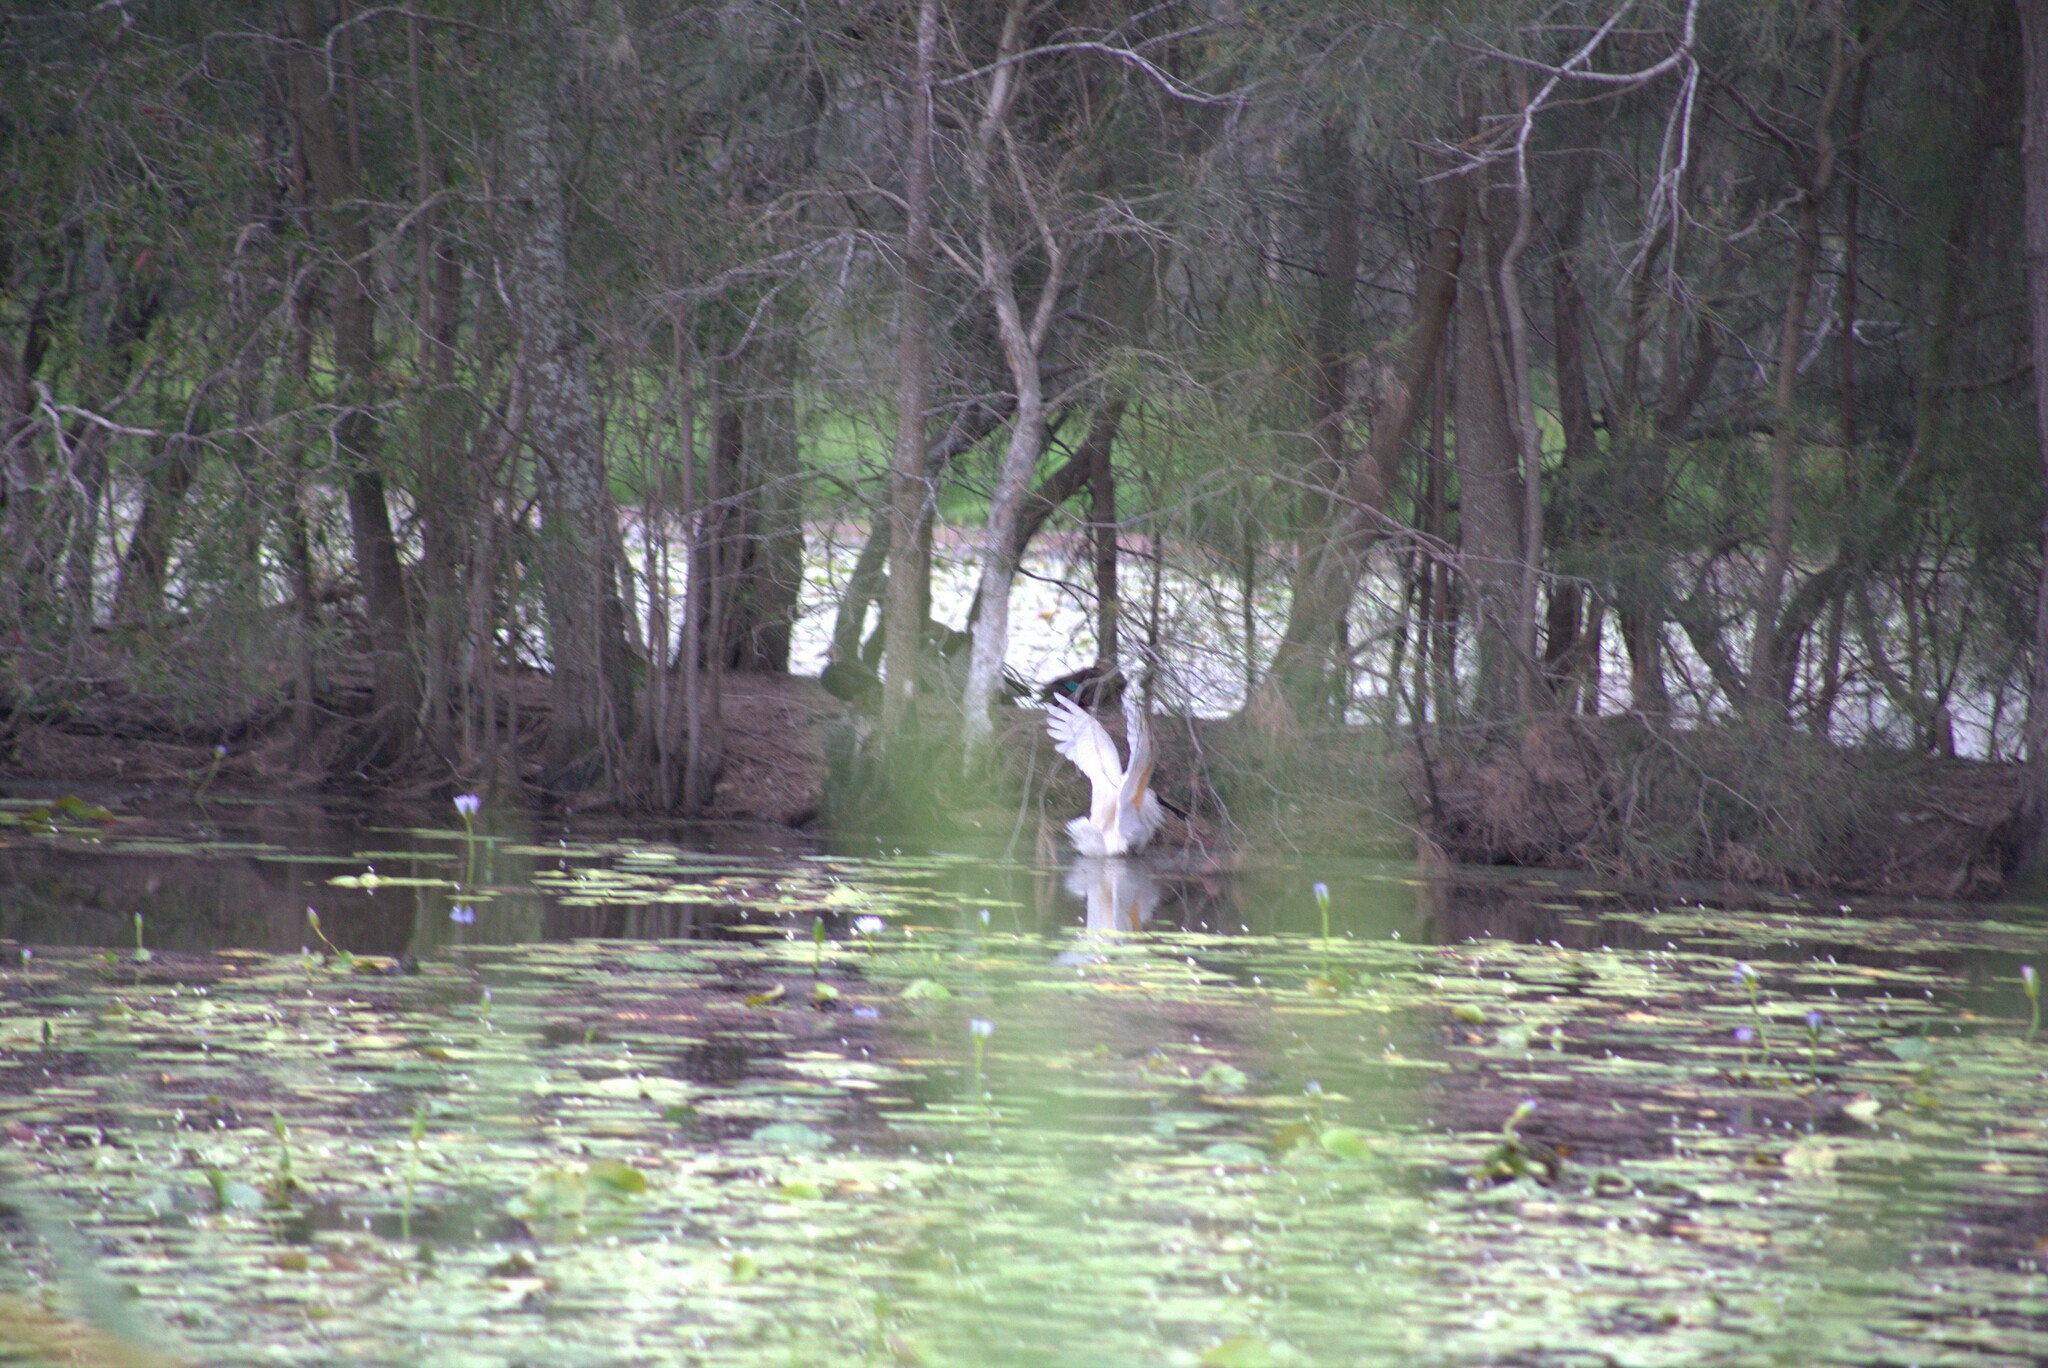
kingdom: Animalia
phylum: Chordata
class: Aves
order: Pelecaniformes
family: Threskiornithidae
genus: Platalea
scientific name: Platalea regia
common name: Royal spoonbill
